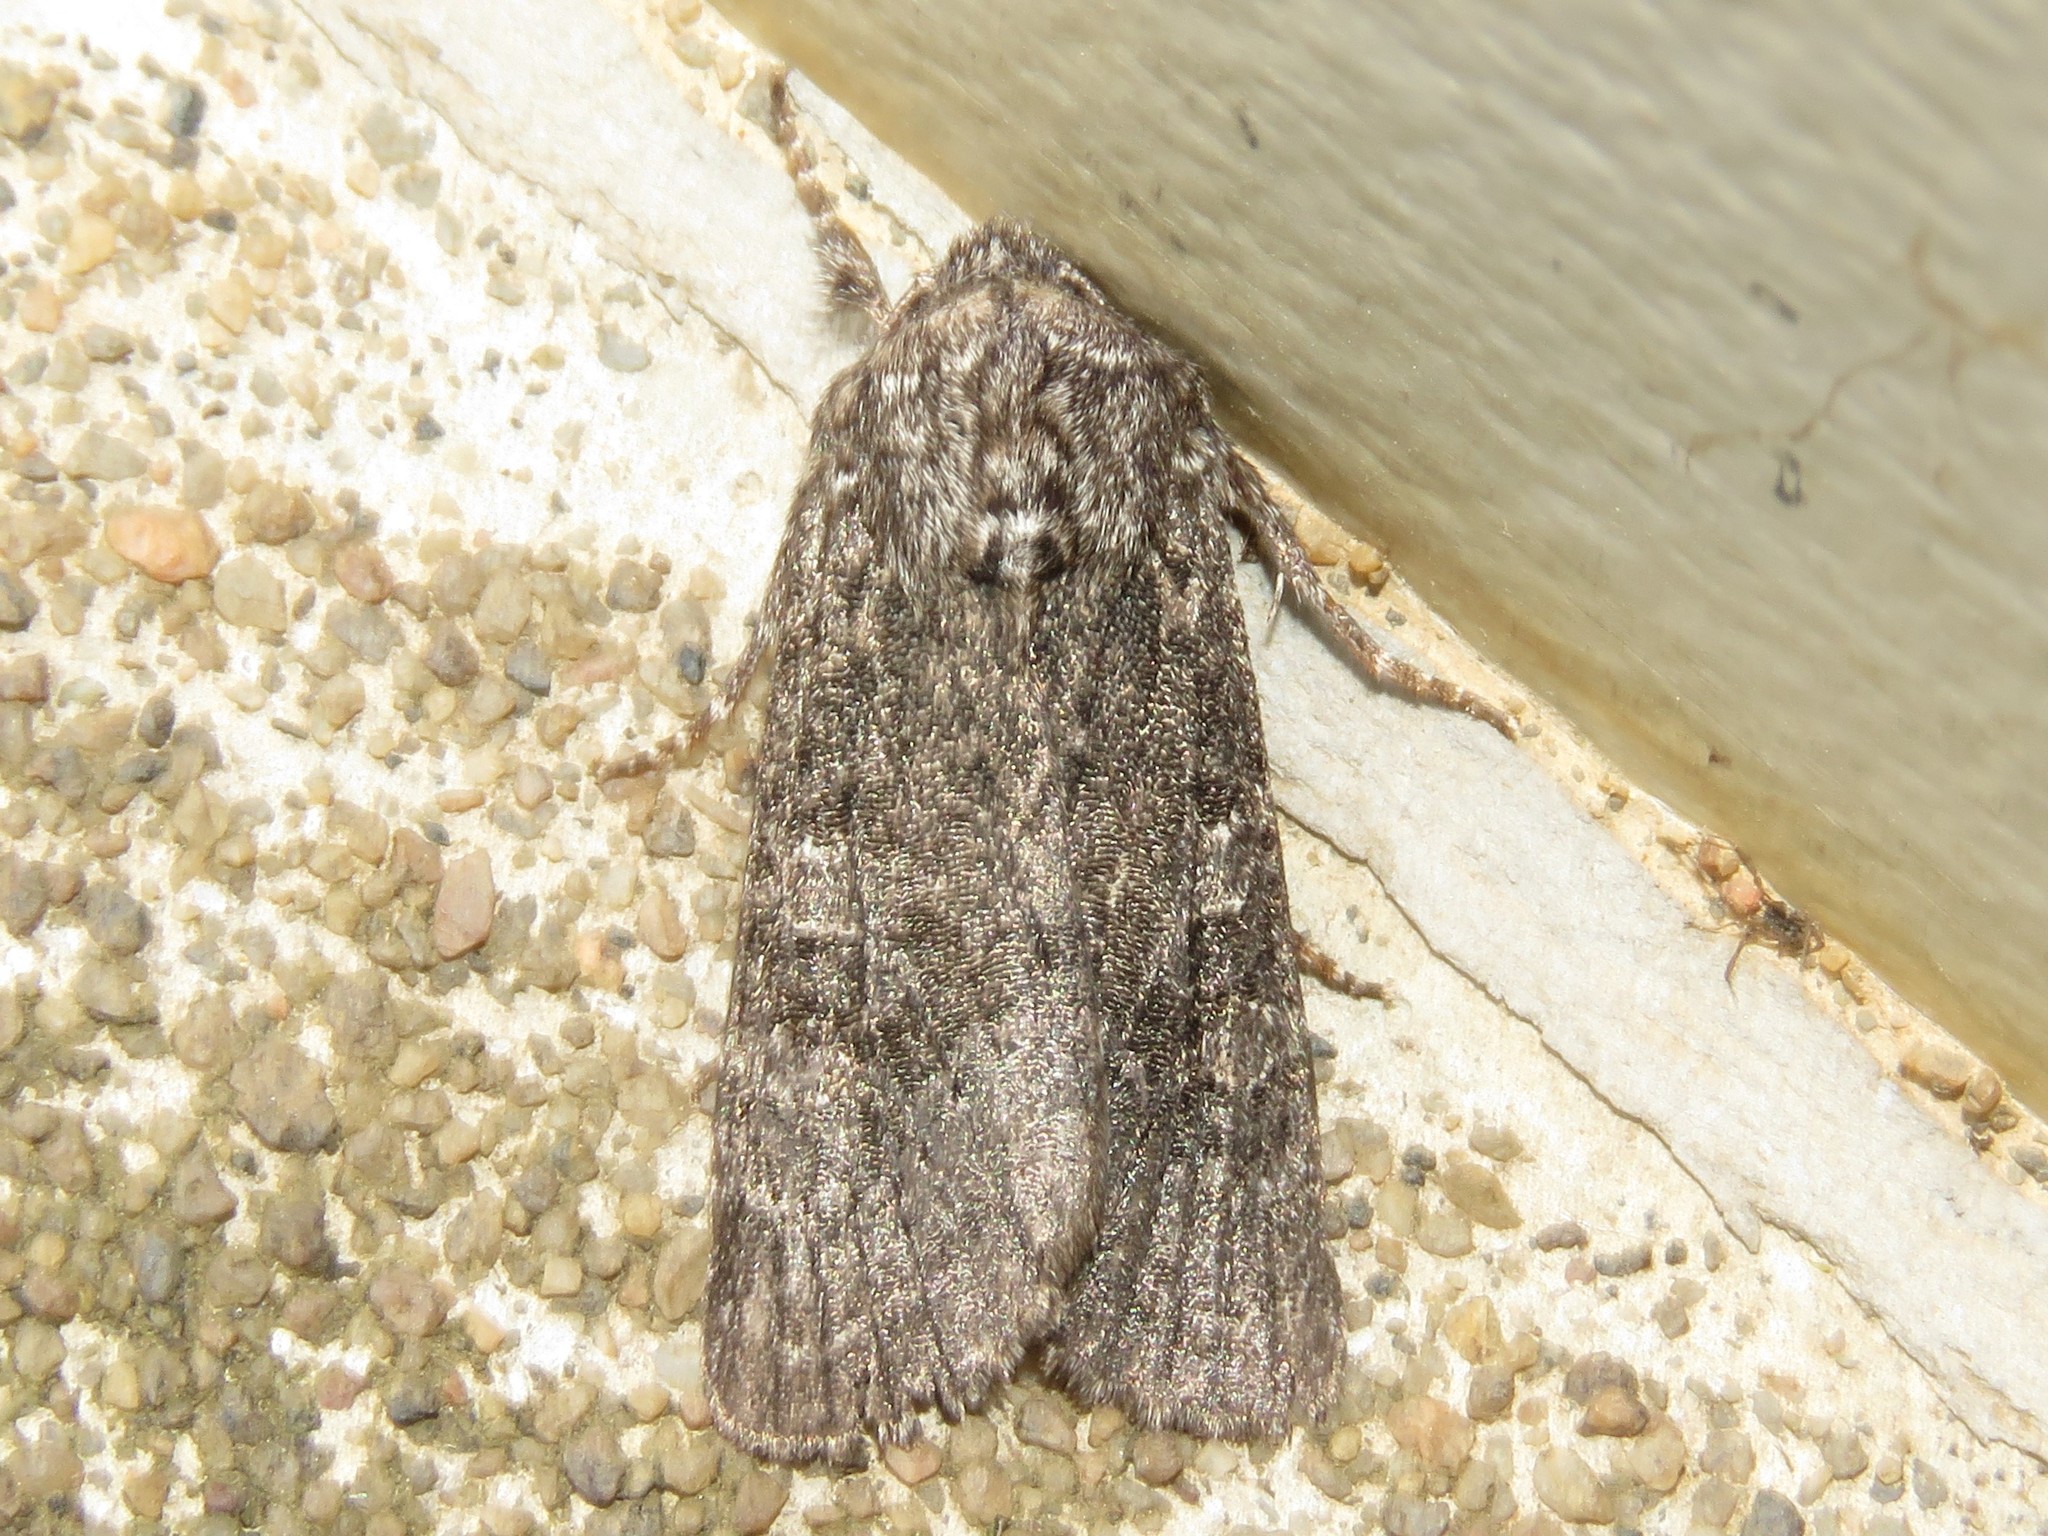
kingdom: Animalia
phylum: Arthropoda
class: Insecta
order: Lepidoptera
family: Noctuidae
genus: Egira
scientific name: Egira dolosa
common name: Lined black aspen cat.
